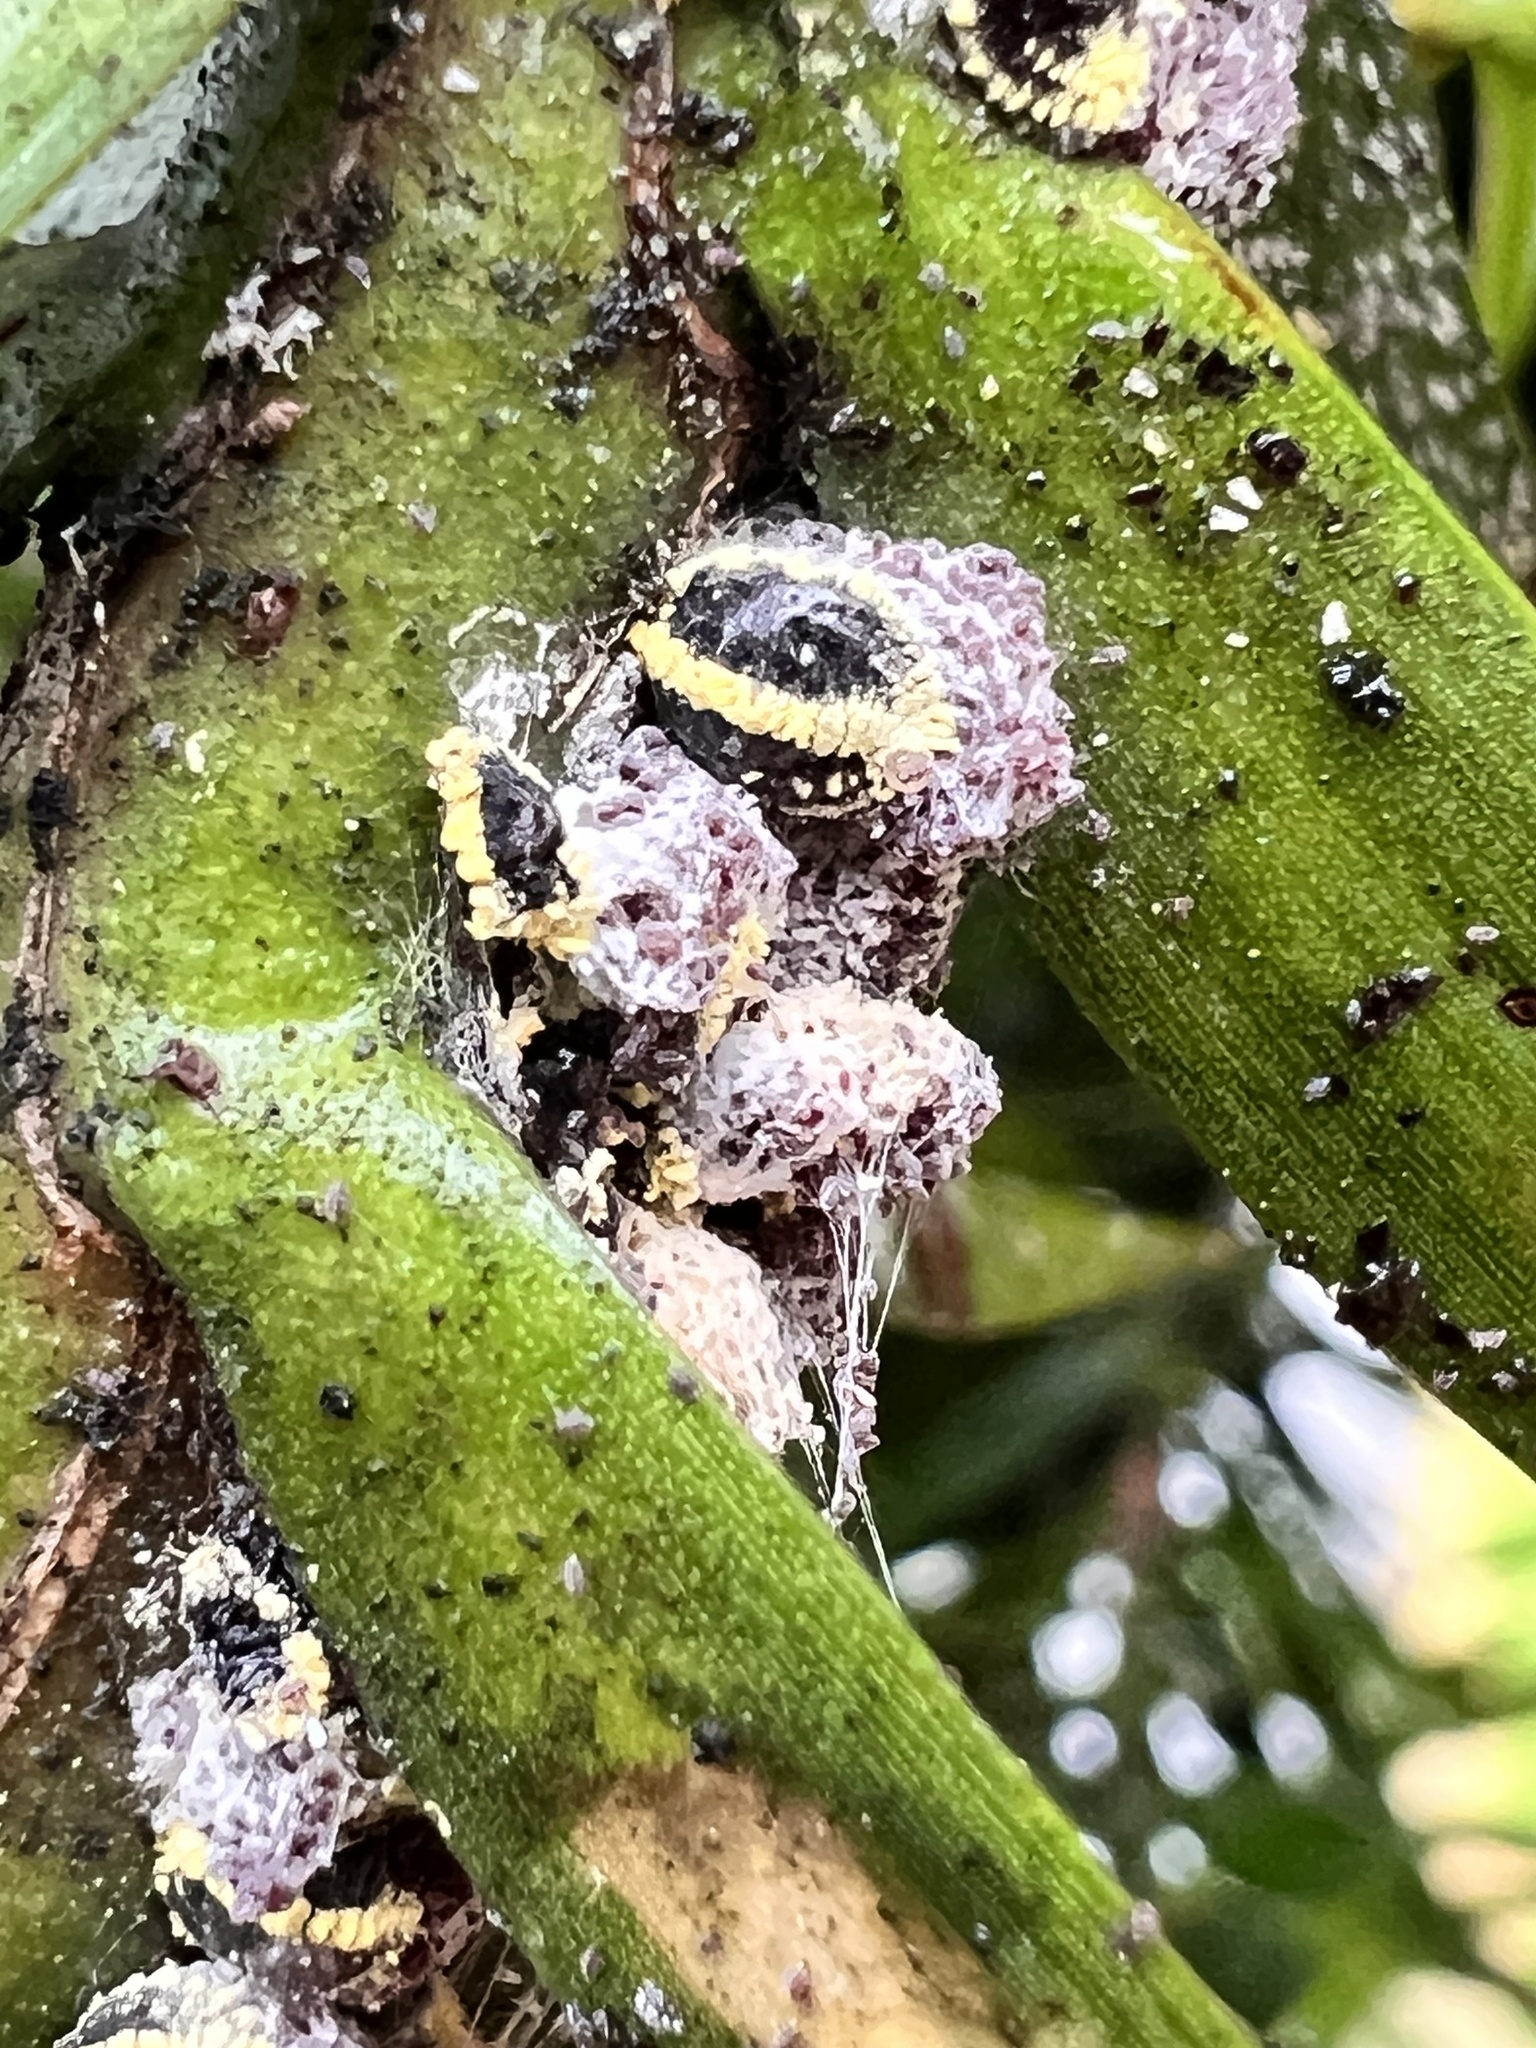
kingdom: Animalia
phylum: Arthropoda
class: Insecta
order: Hemiptera
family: Pseudococcidae
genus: Nipaecoccus
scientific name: Nipaecoccus aurilanatus
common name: Mealybug
